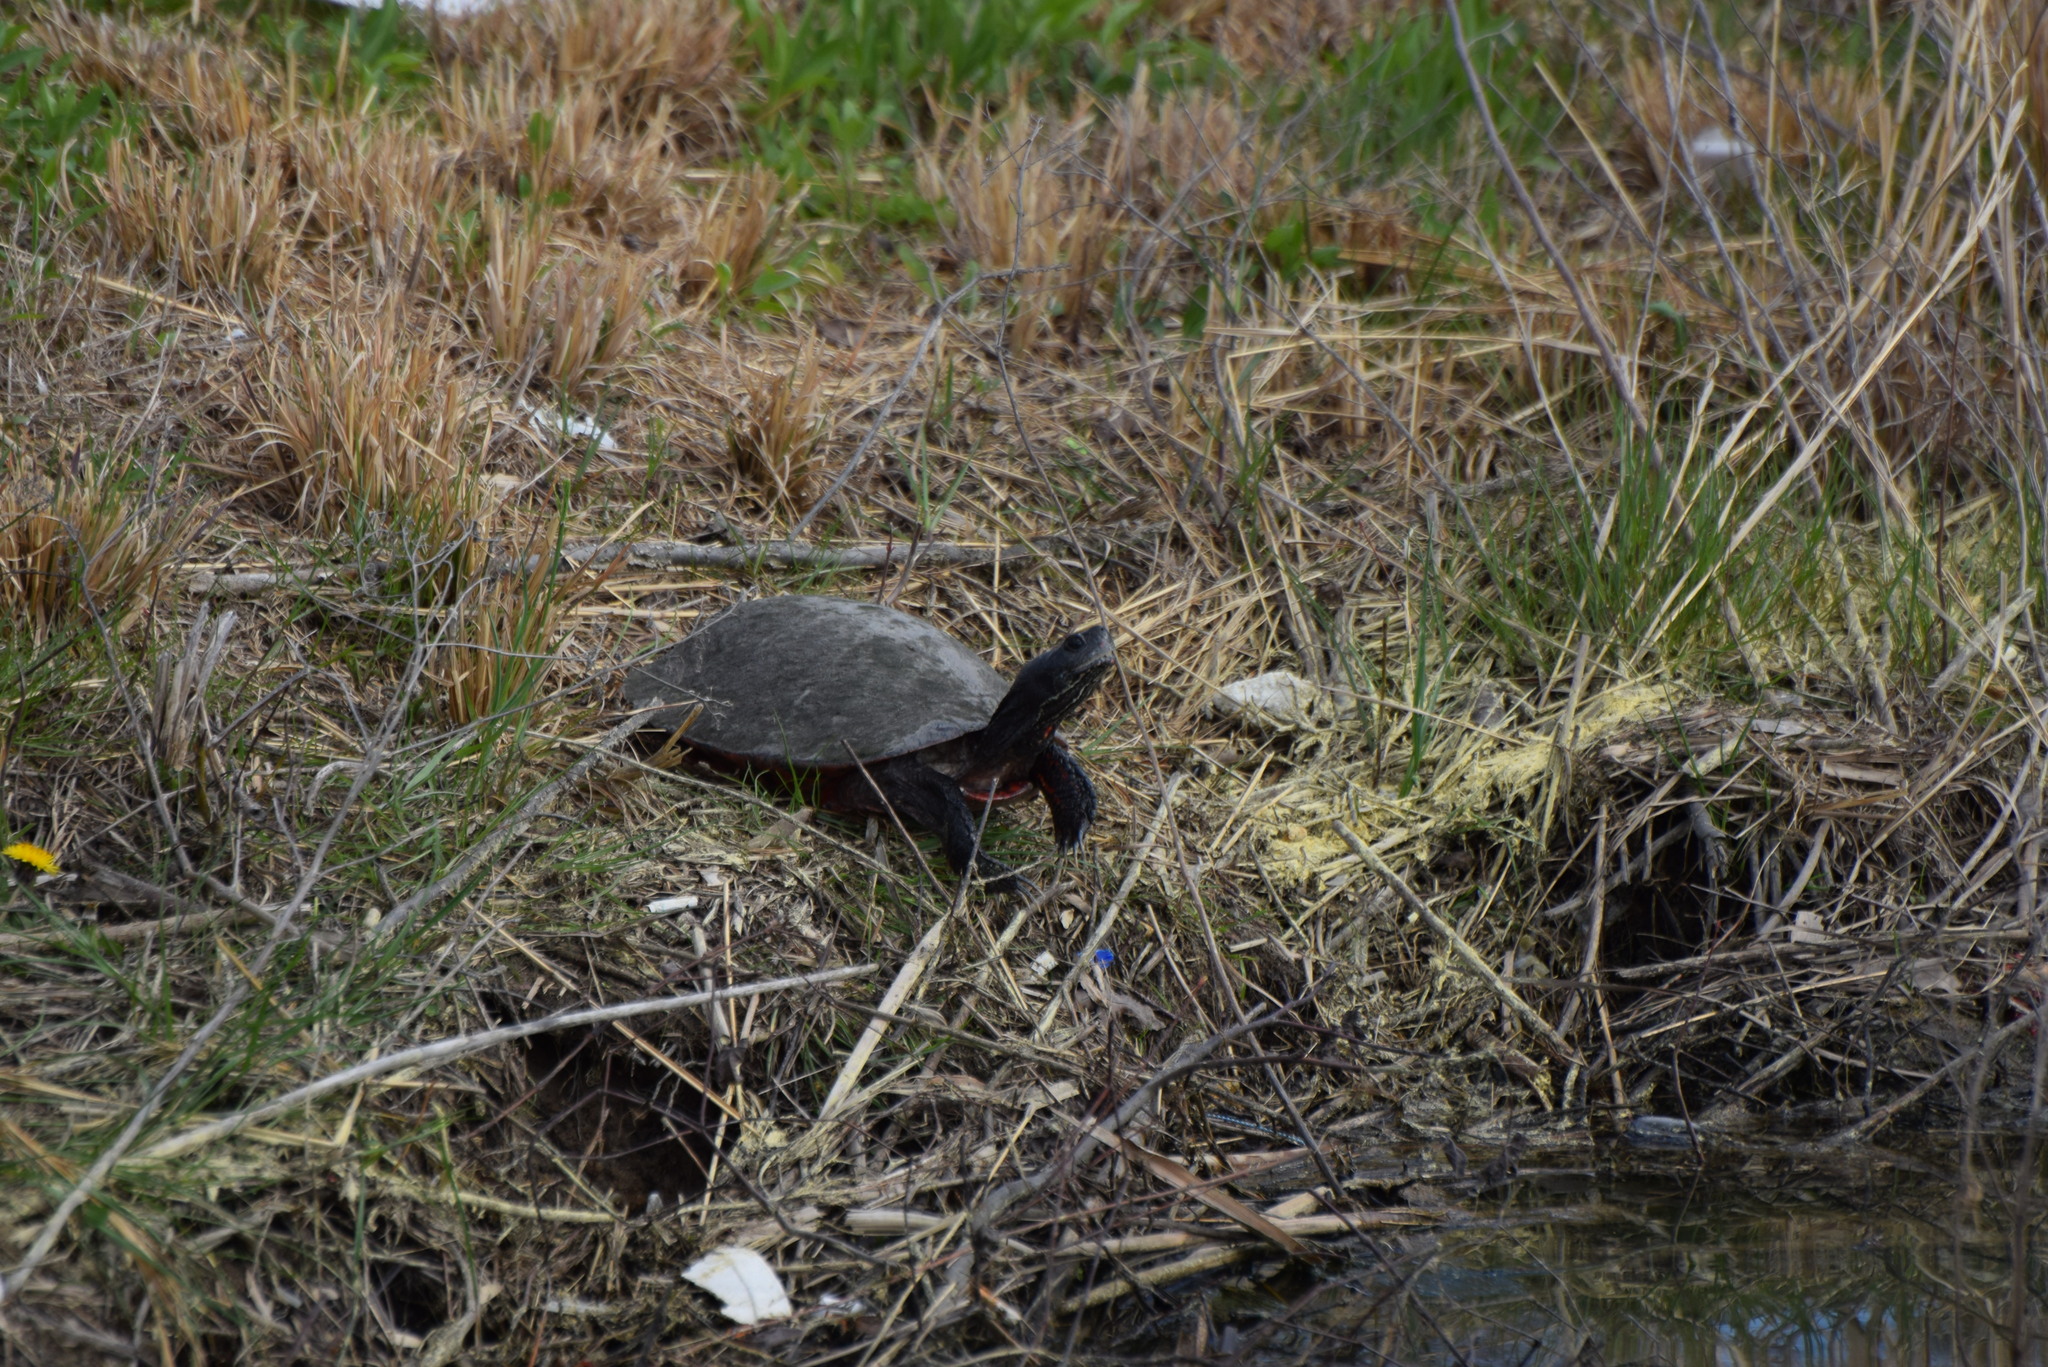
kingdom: Animalia
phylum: Chordata
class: Testudines
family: Emydidae
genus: Pseudemys
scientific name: Pseudemys rubriventris
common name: American red-bellied turtle
